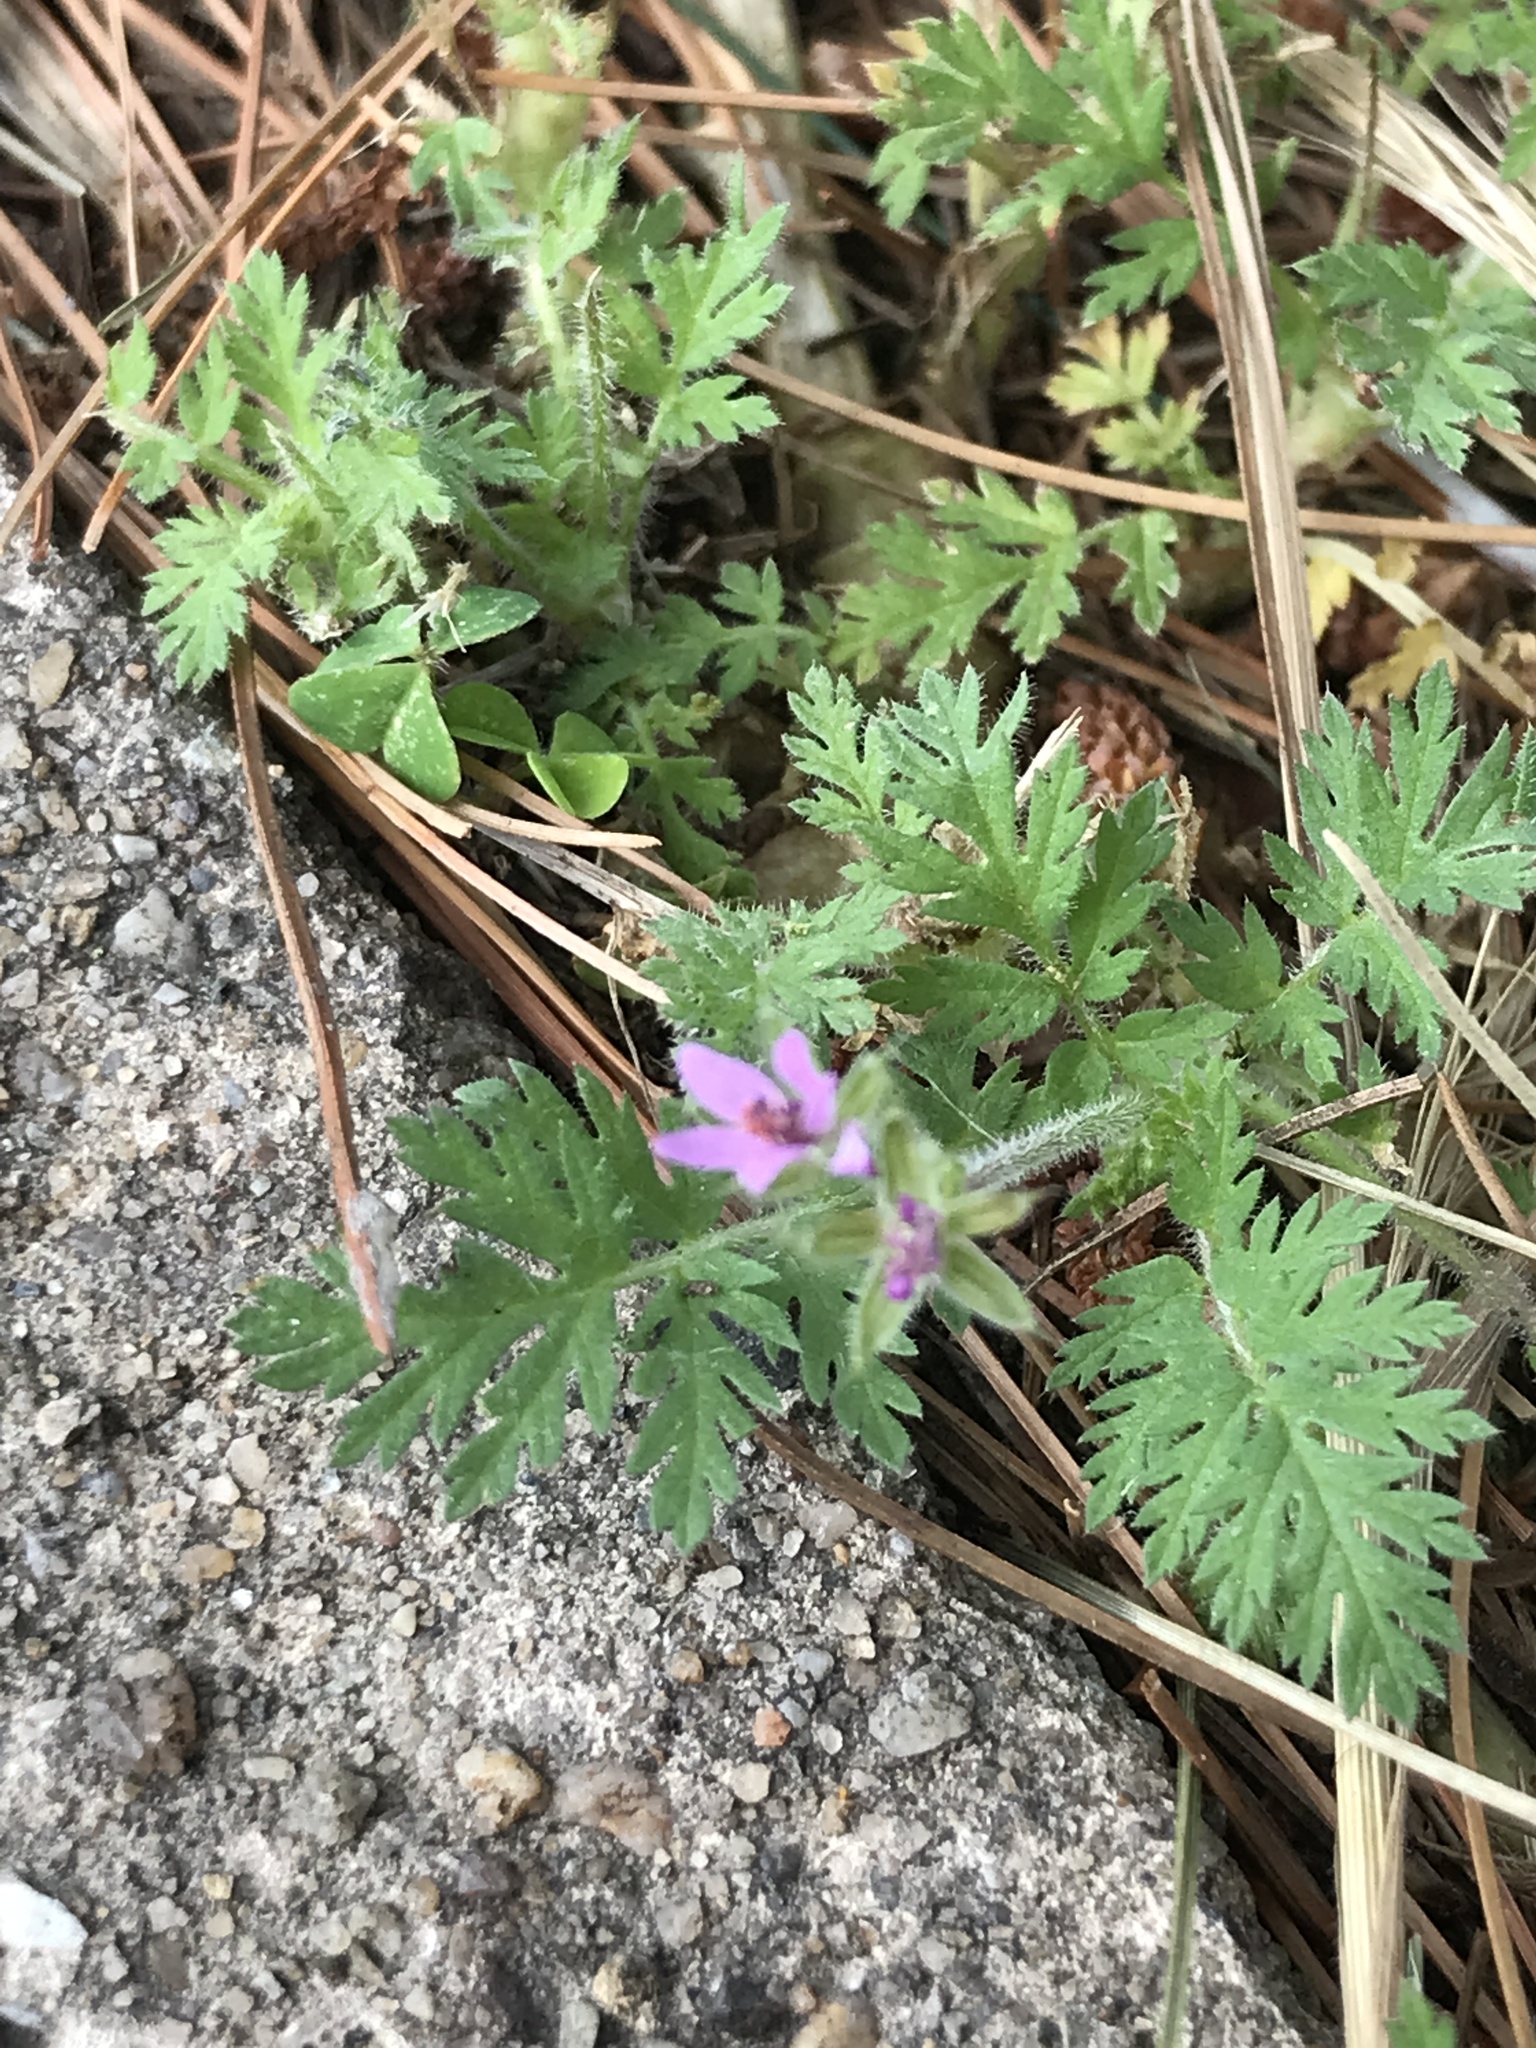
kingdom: Plantae
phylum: Tracheophyta
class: Magnoliopsida
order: Geraniales
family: Geraniaceae
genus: Erodium
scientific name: Erodium cicutarium
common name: Common stork's-bill
